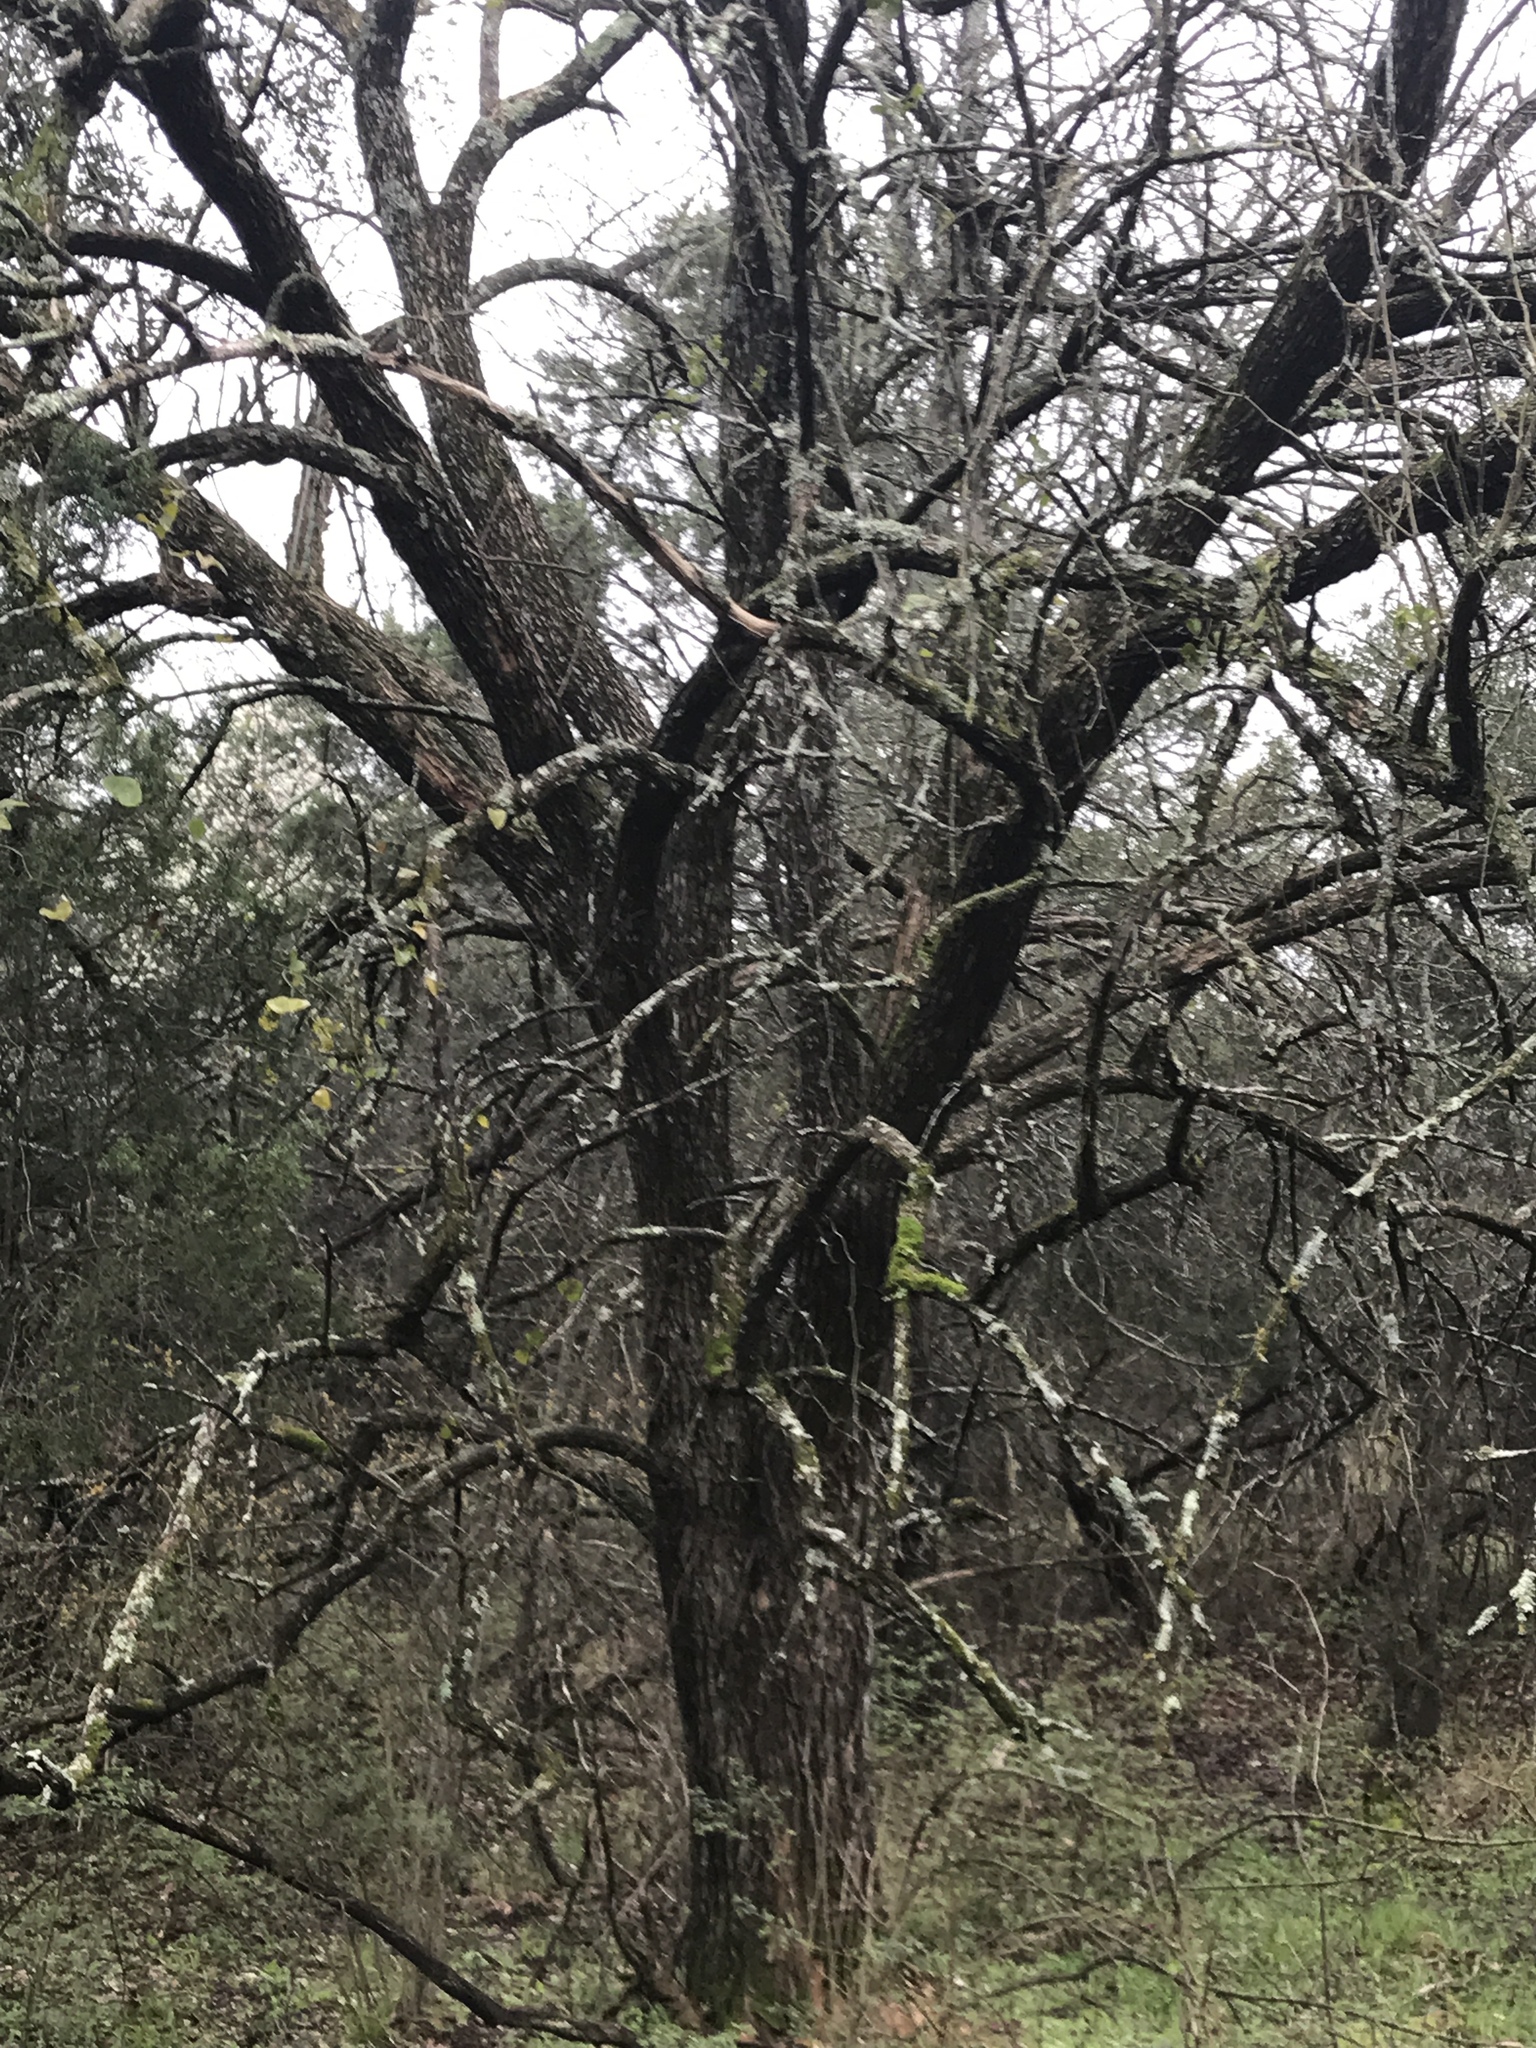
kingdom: Plantae
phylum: Tracheophyta
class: Magnoliopsida
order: Rosales
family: Moraceae
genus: Maclura
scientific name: Maclura pomifera
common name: Osage-orange
